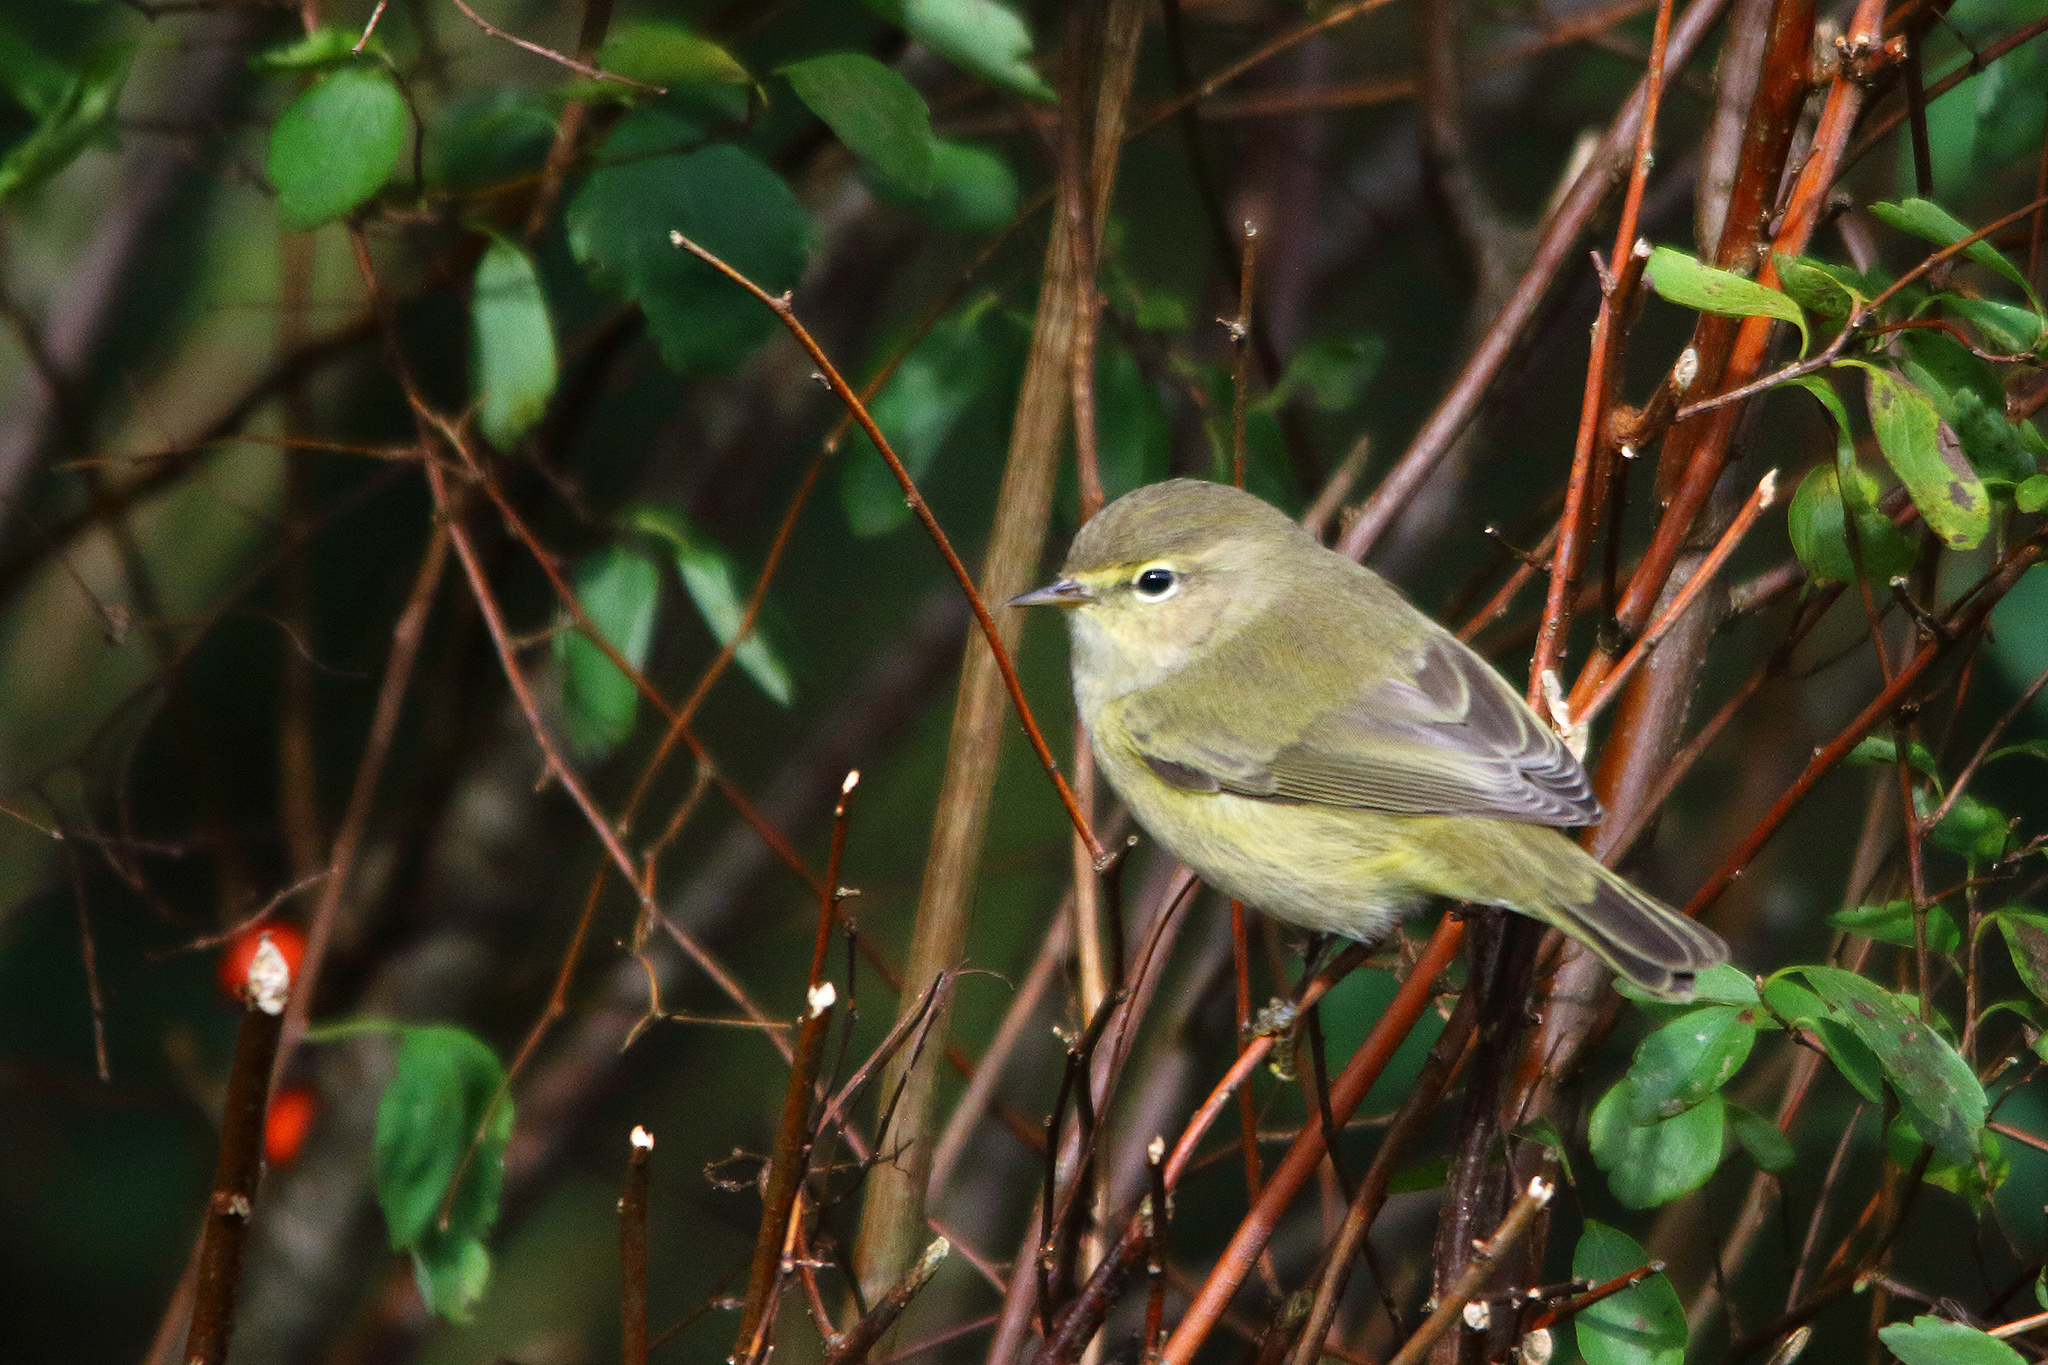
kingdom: Animalia
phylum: Chordata
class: Aves
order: Passeriformes
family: Phylloscopidae
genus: Phylloscopus
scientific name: Phylloscopus collybita
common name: Common chiffchaff
